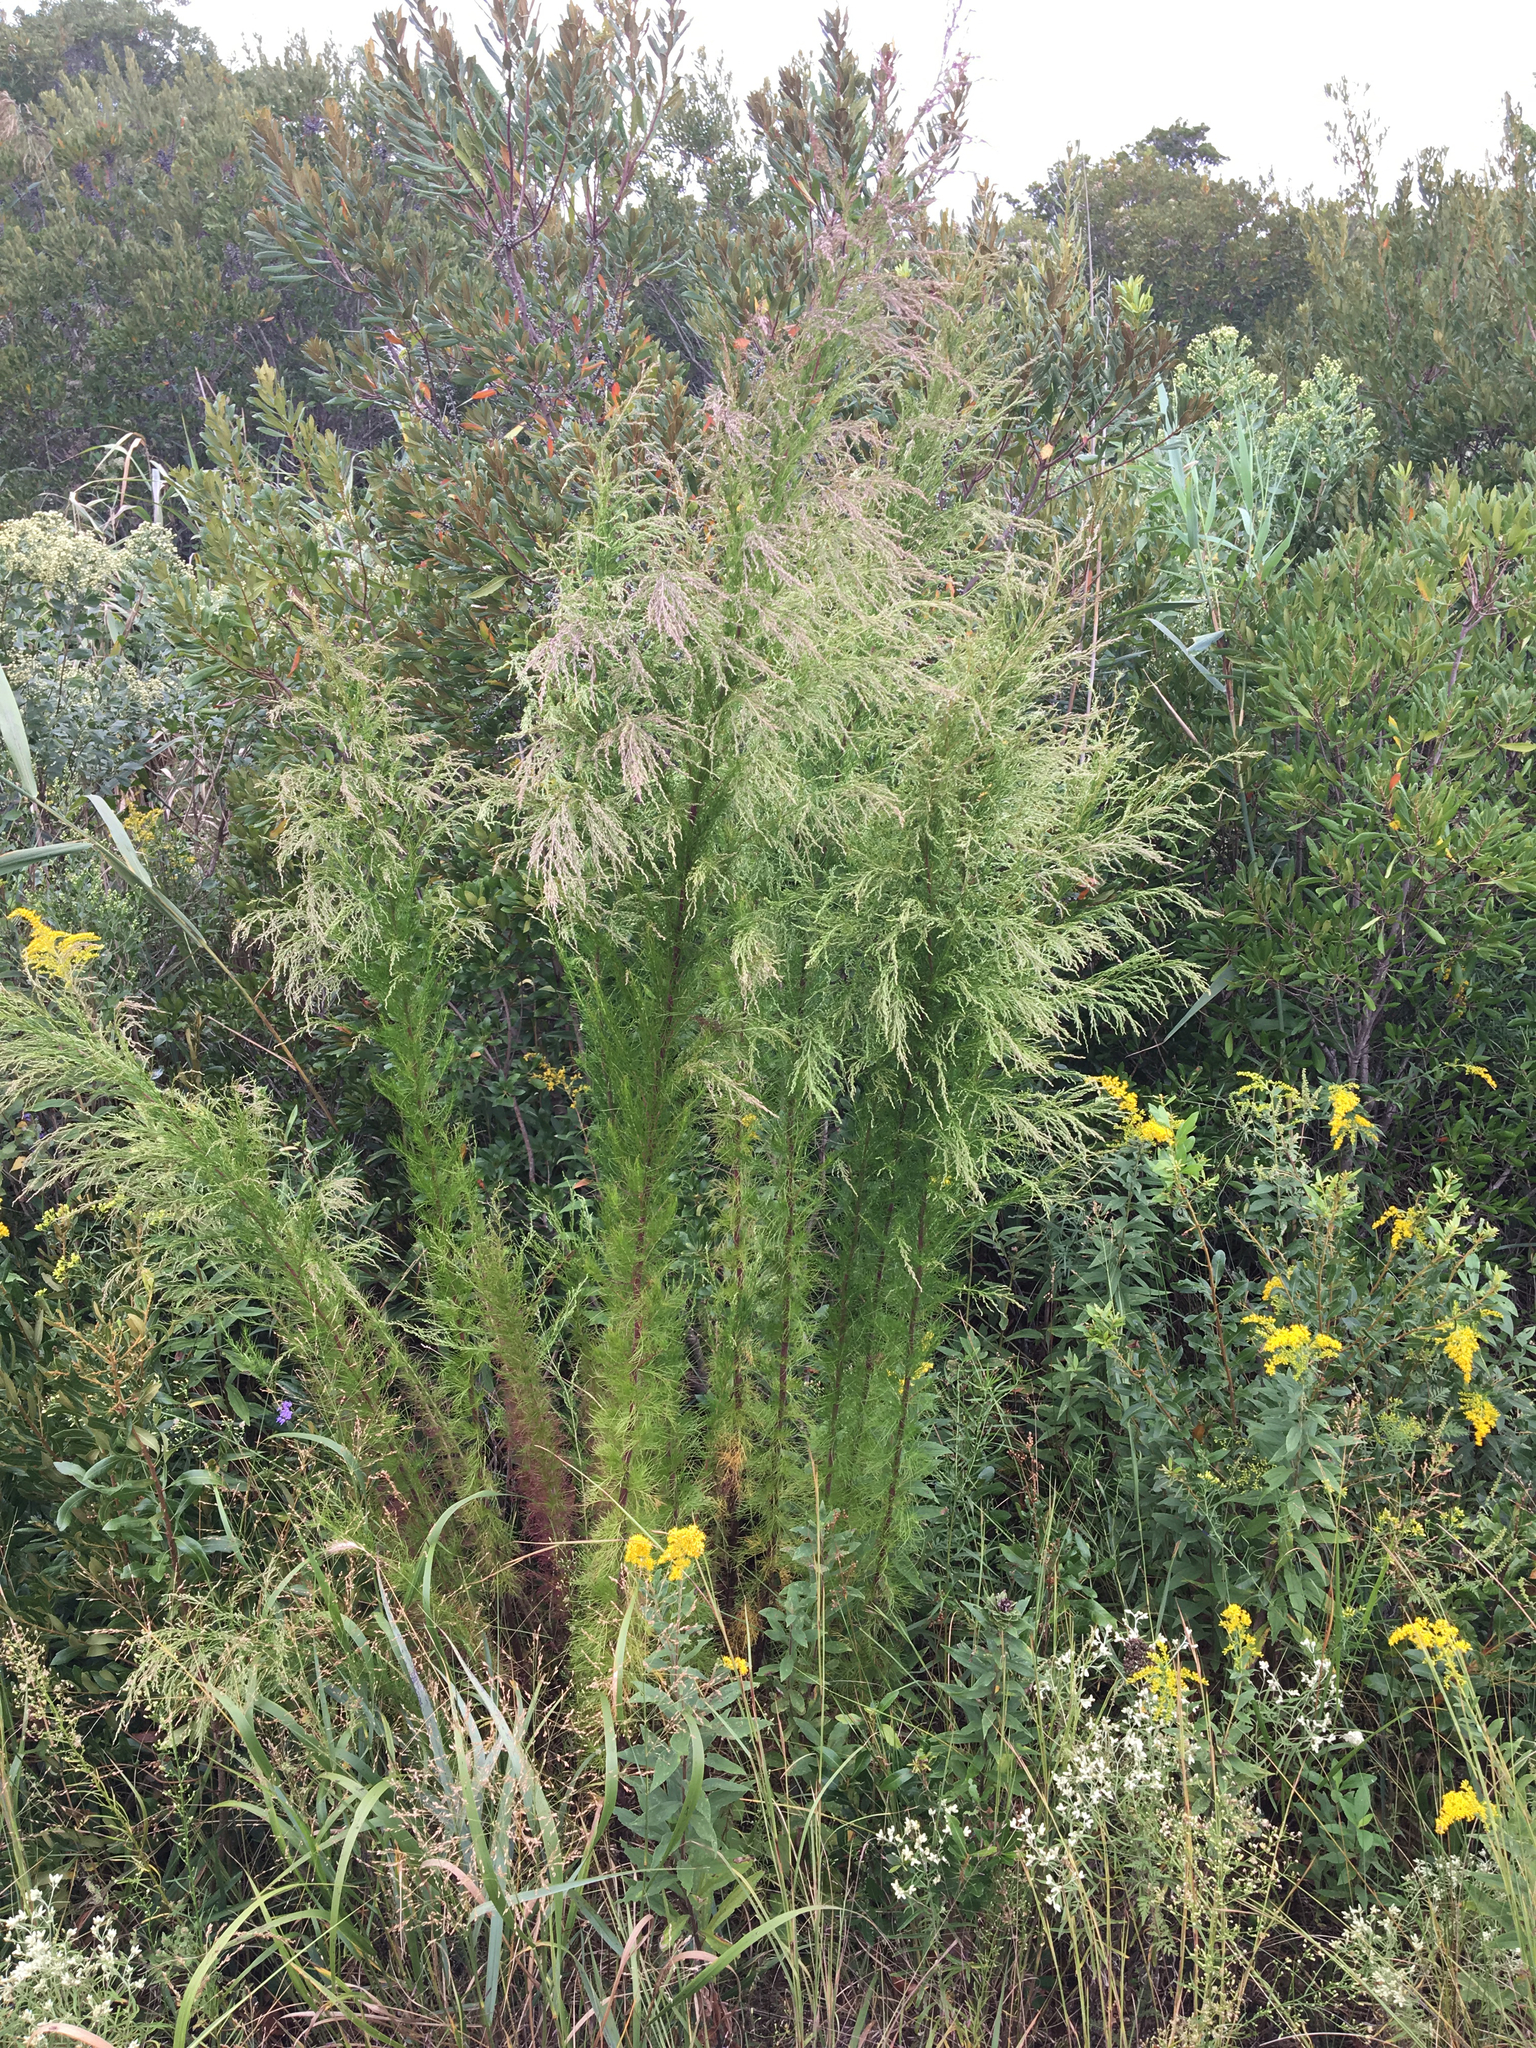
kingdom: Plantae
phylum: Tracheophyta
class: Magnoliopsida
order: Asterales
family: Asteraceae
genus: Eupatorium
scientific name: Eupatorium capillifolium
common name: Dog-fennel
